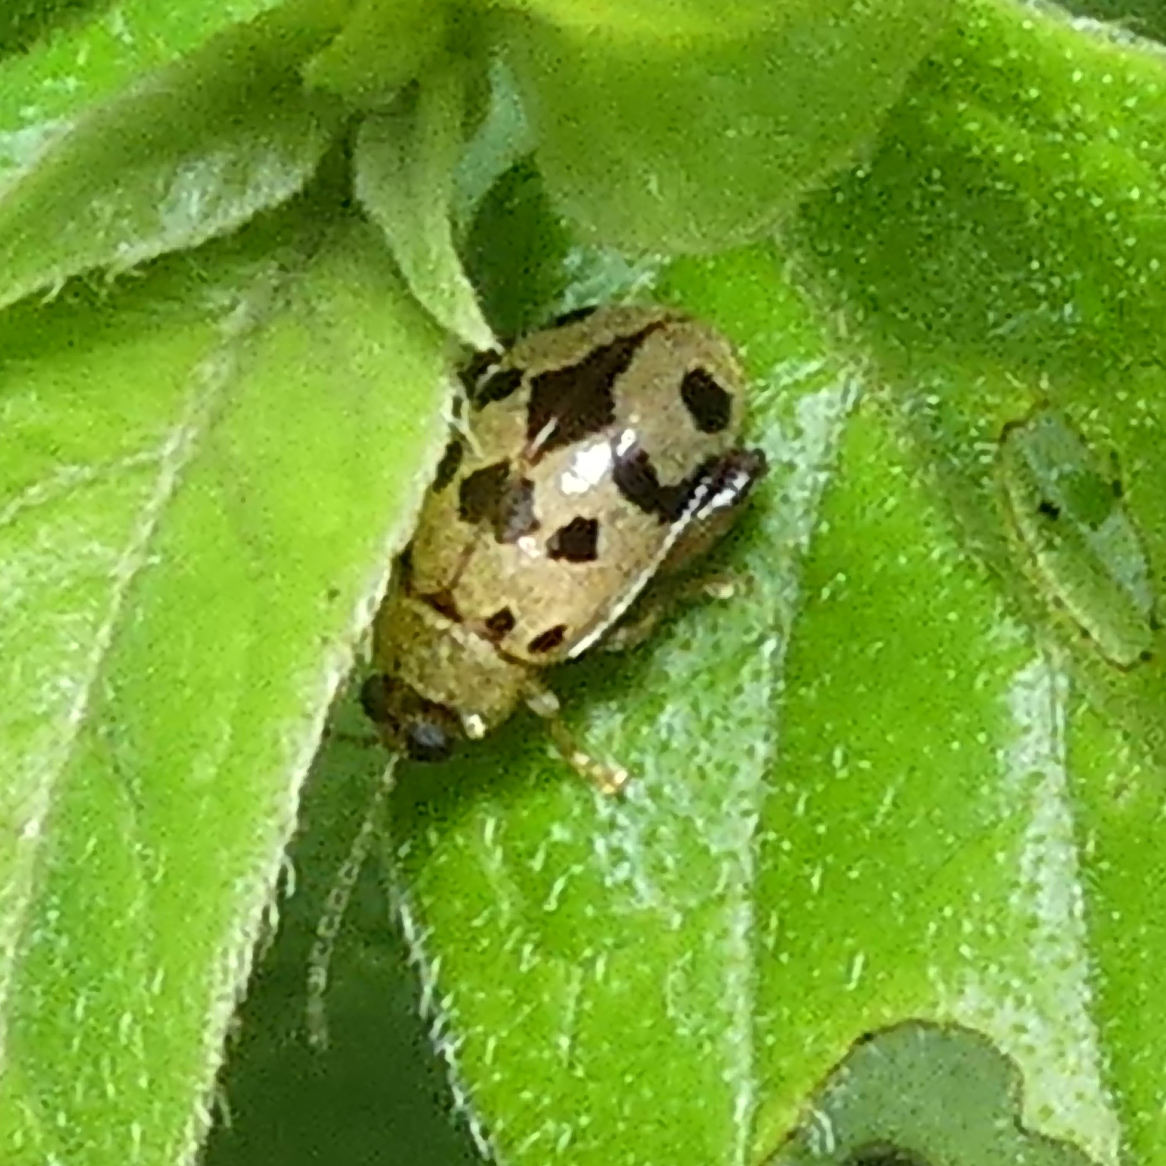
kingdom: Animalia
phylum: Arthropoda
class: Insecta
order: Coleoptera
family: Chrysomelidae
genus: Alagoasa
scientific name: Alagoasa
